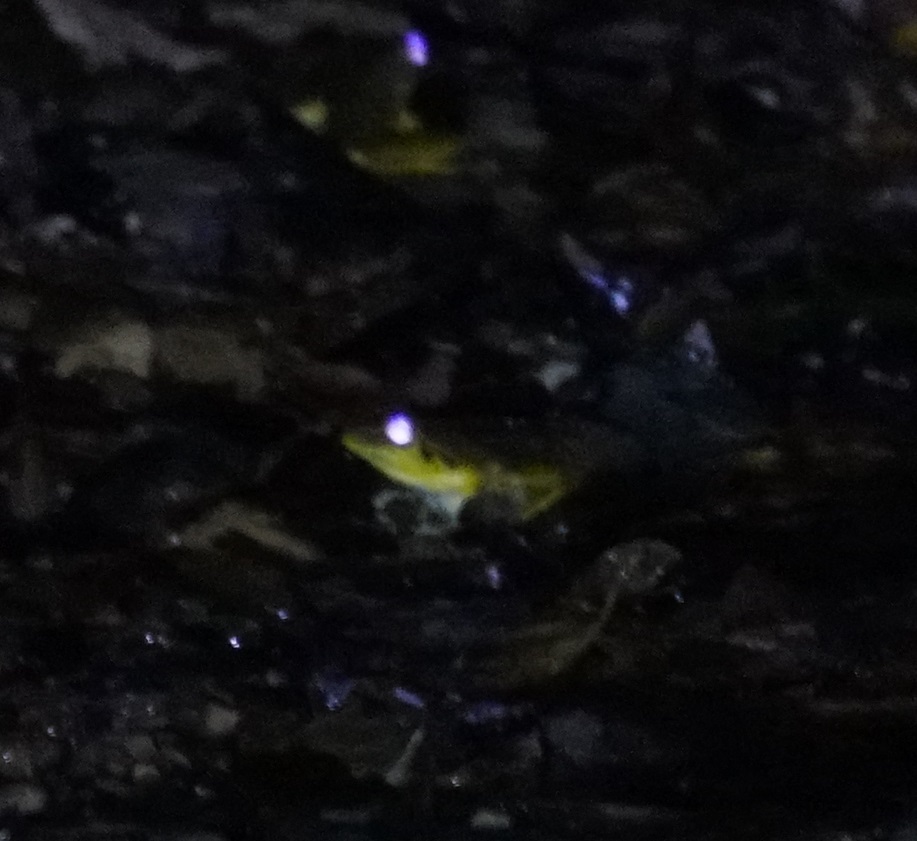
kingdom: Animalia
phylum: Chordata
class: Amphibia
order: Anura
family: Hylidae
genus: Ranoidea
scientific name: Ranoidea
